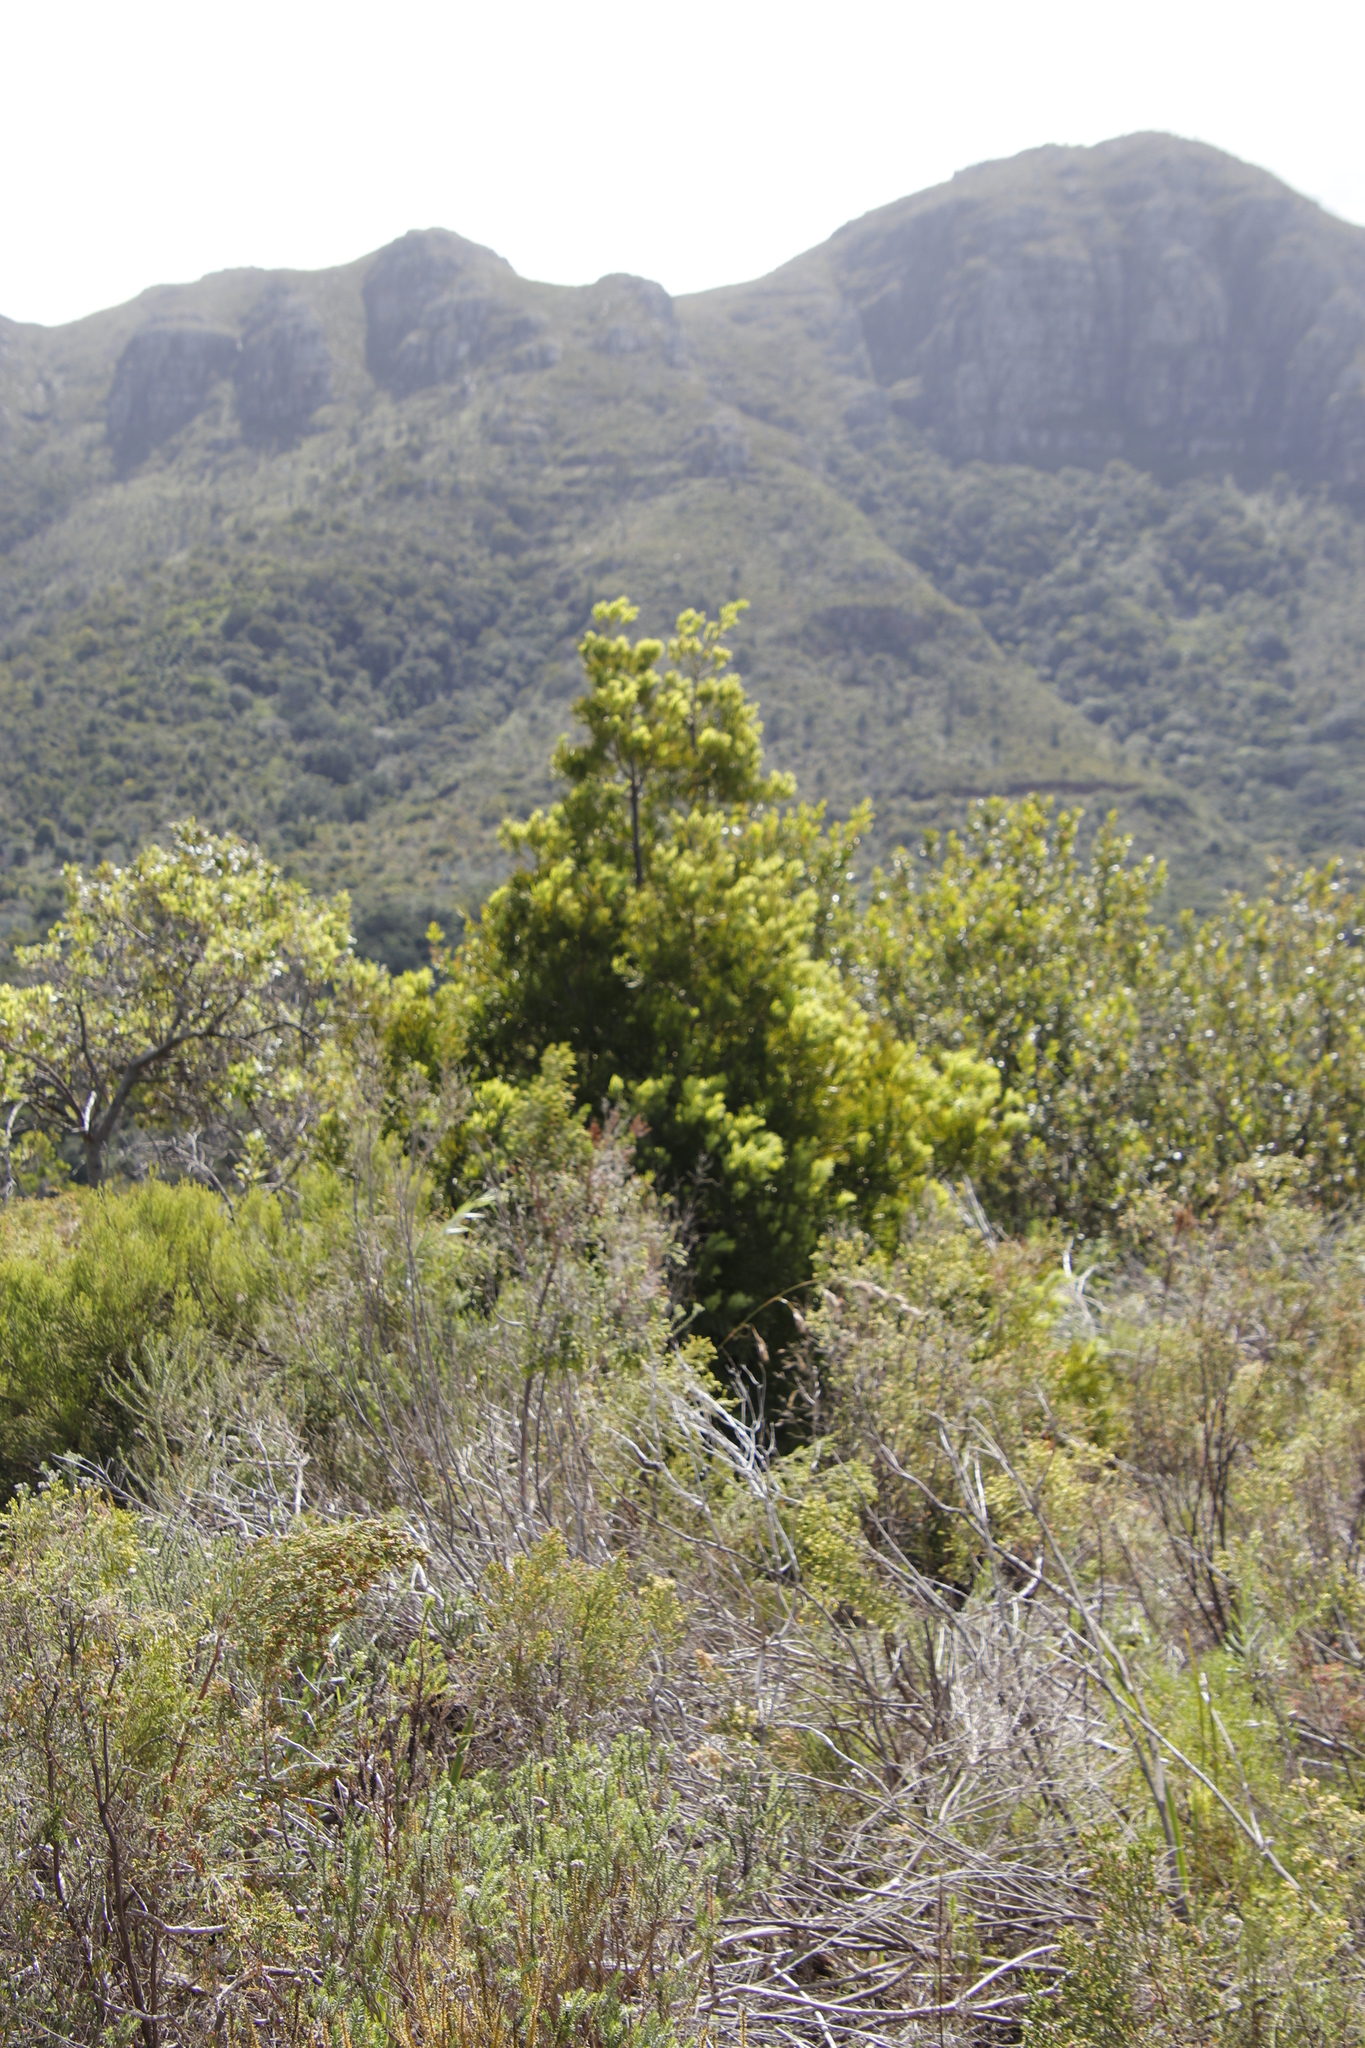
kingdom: Plantae
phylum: Tracheophyta
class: Pinopsida
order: Pinales
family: Podocarpaceae
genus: Afrocarpus
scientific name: Afrocarpus falcatus
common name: Bastard yellowwood
